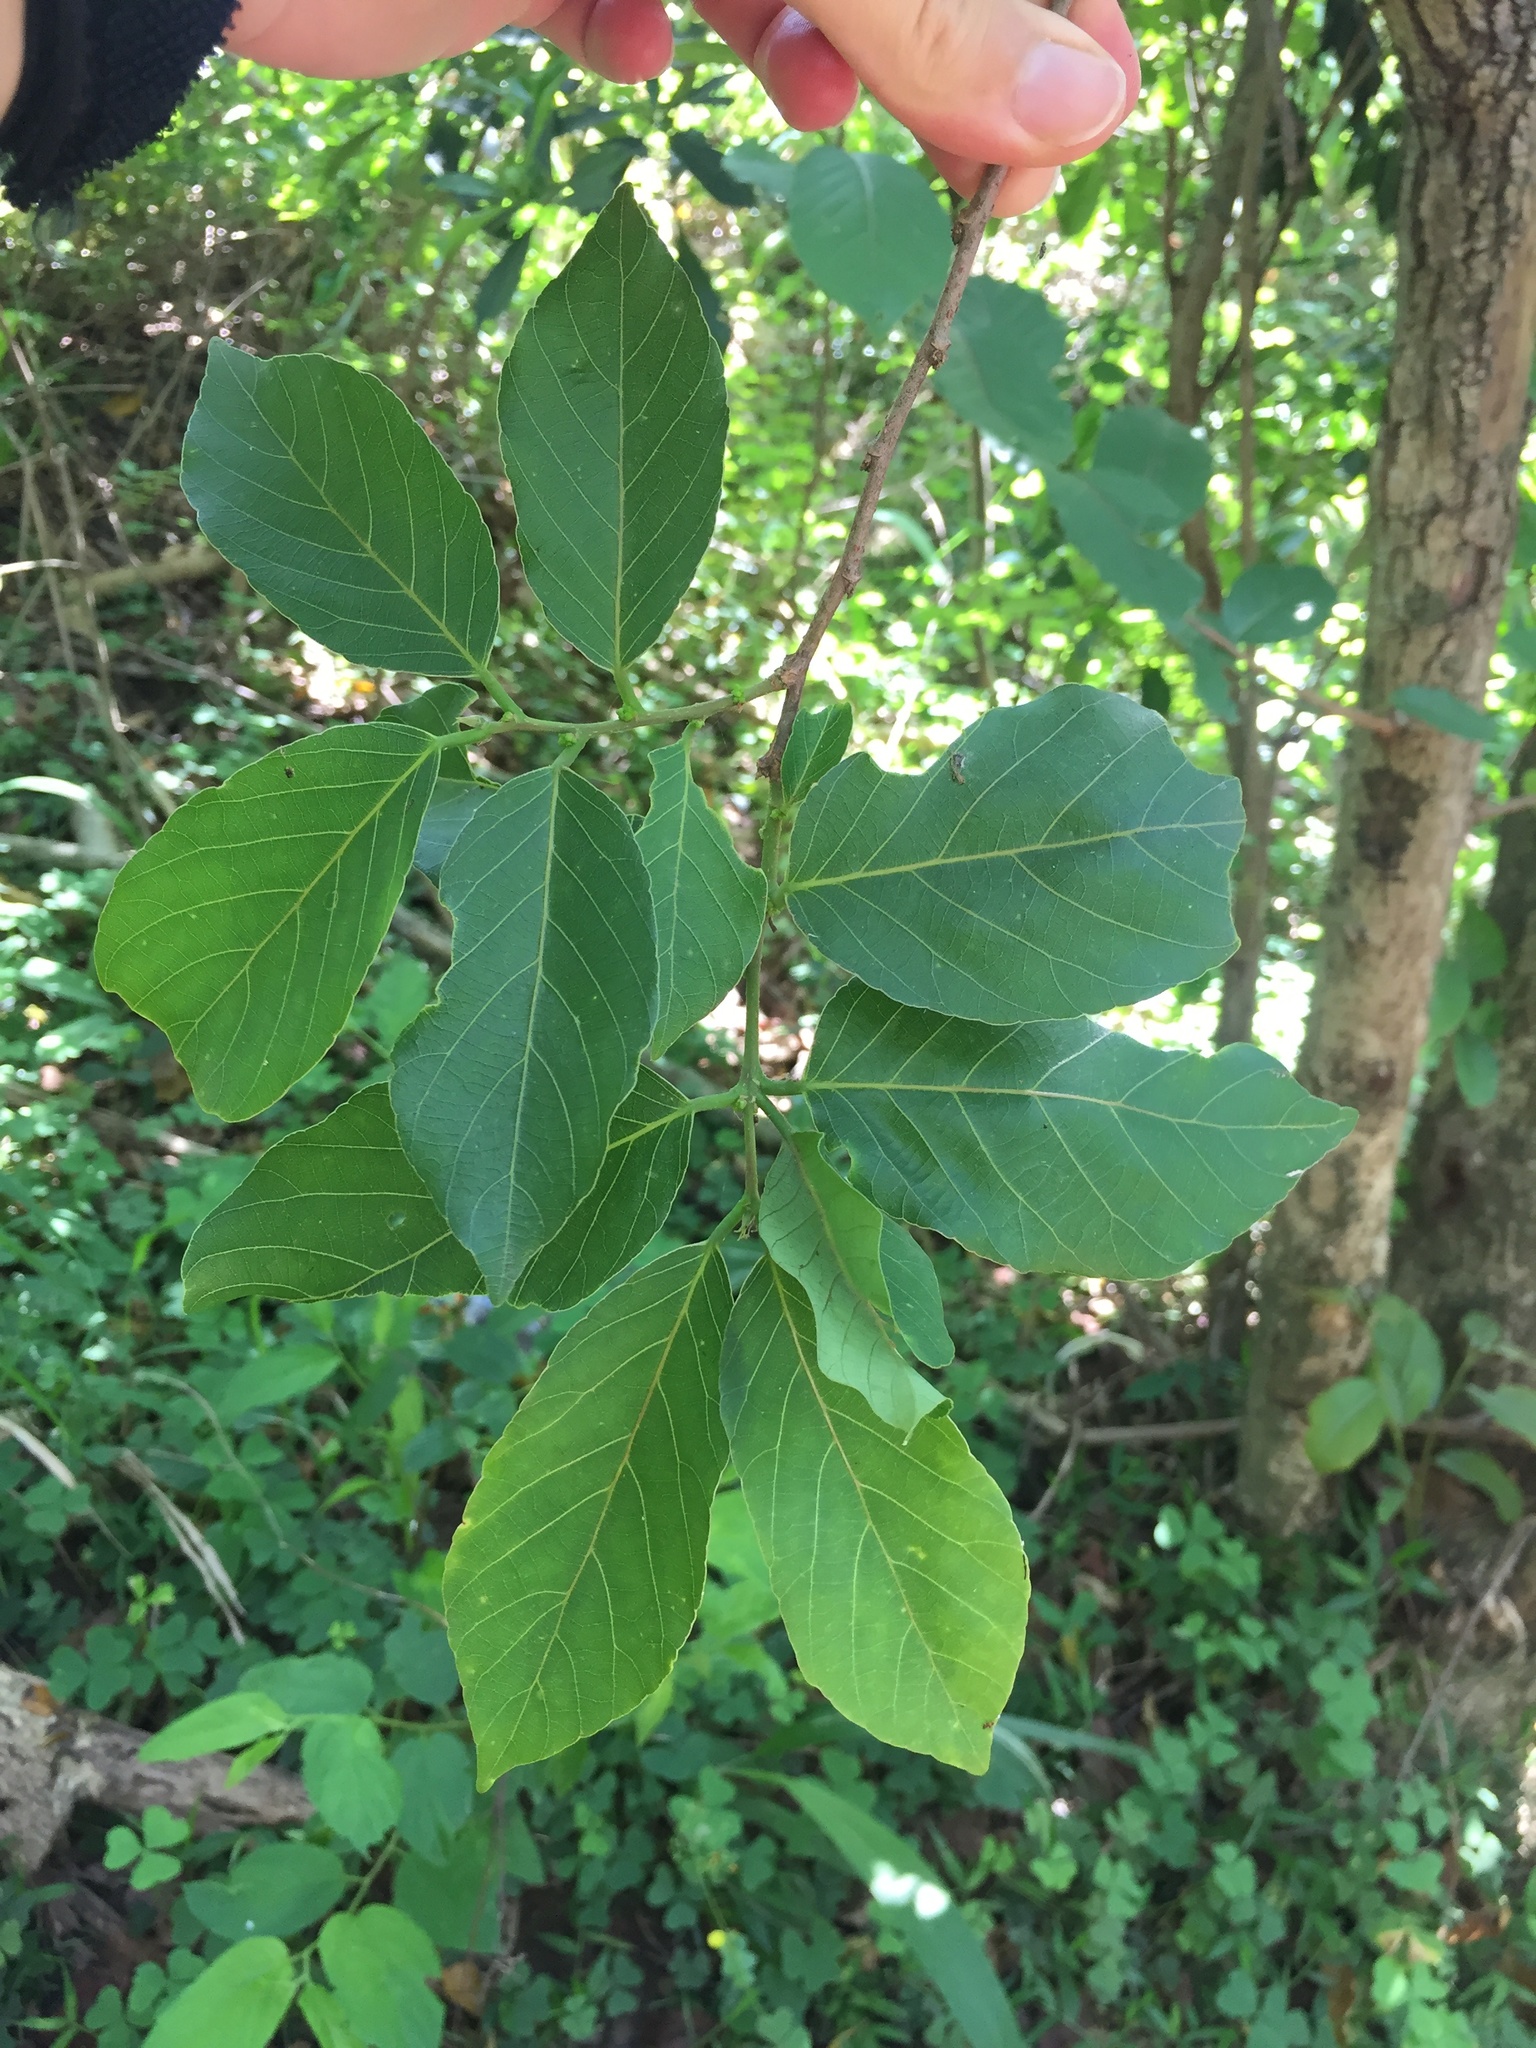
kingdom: Plantae
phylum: Tracheophyta
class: Magnoliopsida
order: Malpighiales
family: Phyllanthaceae
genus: Bridelia
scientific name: Bridelia micrantha
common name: Bridelia
